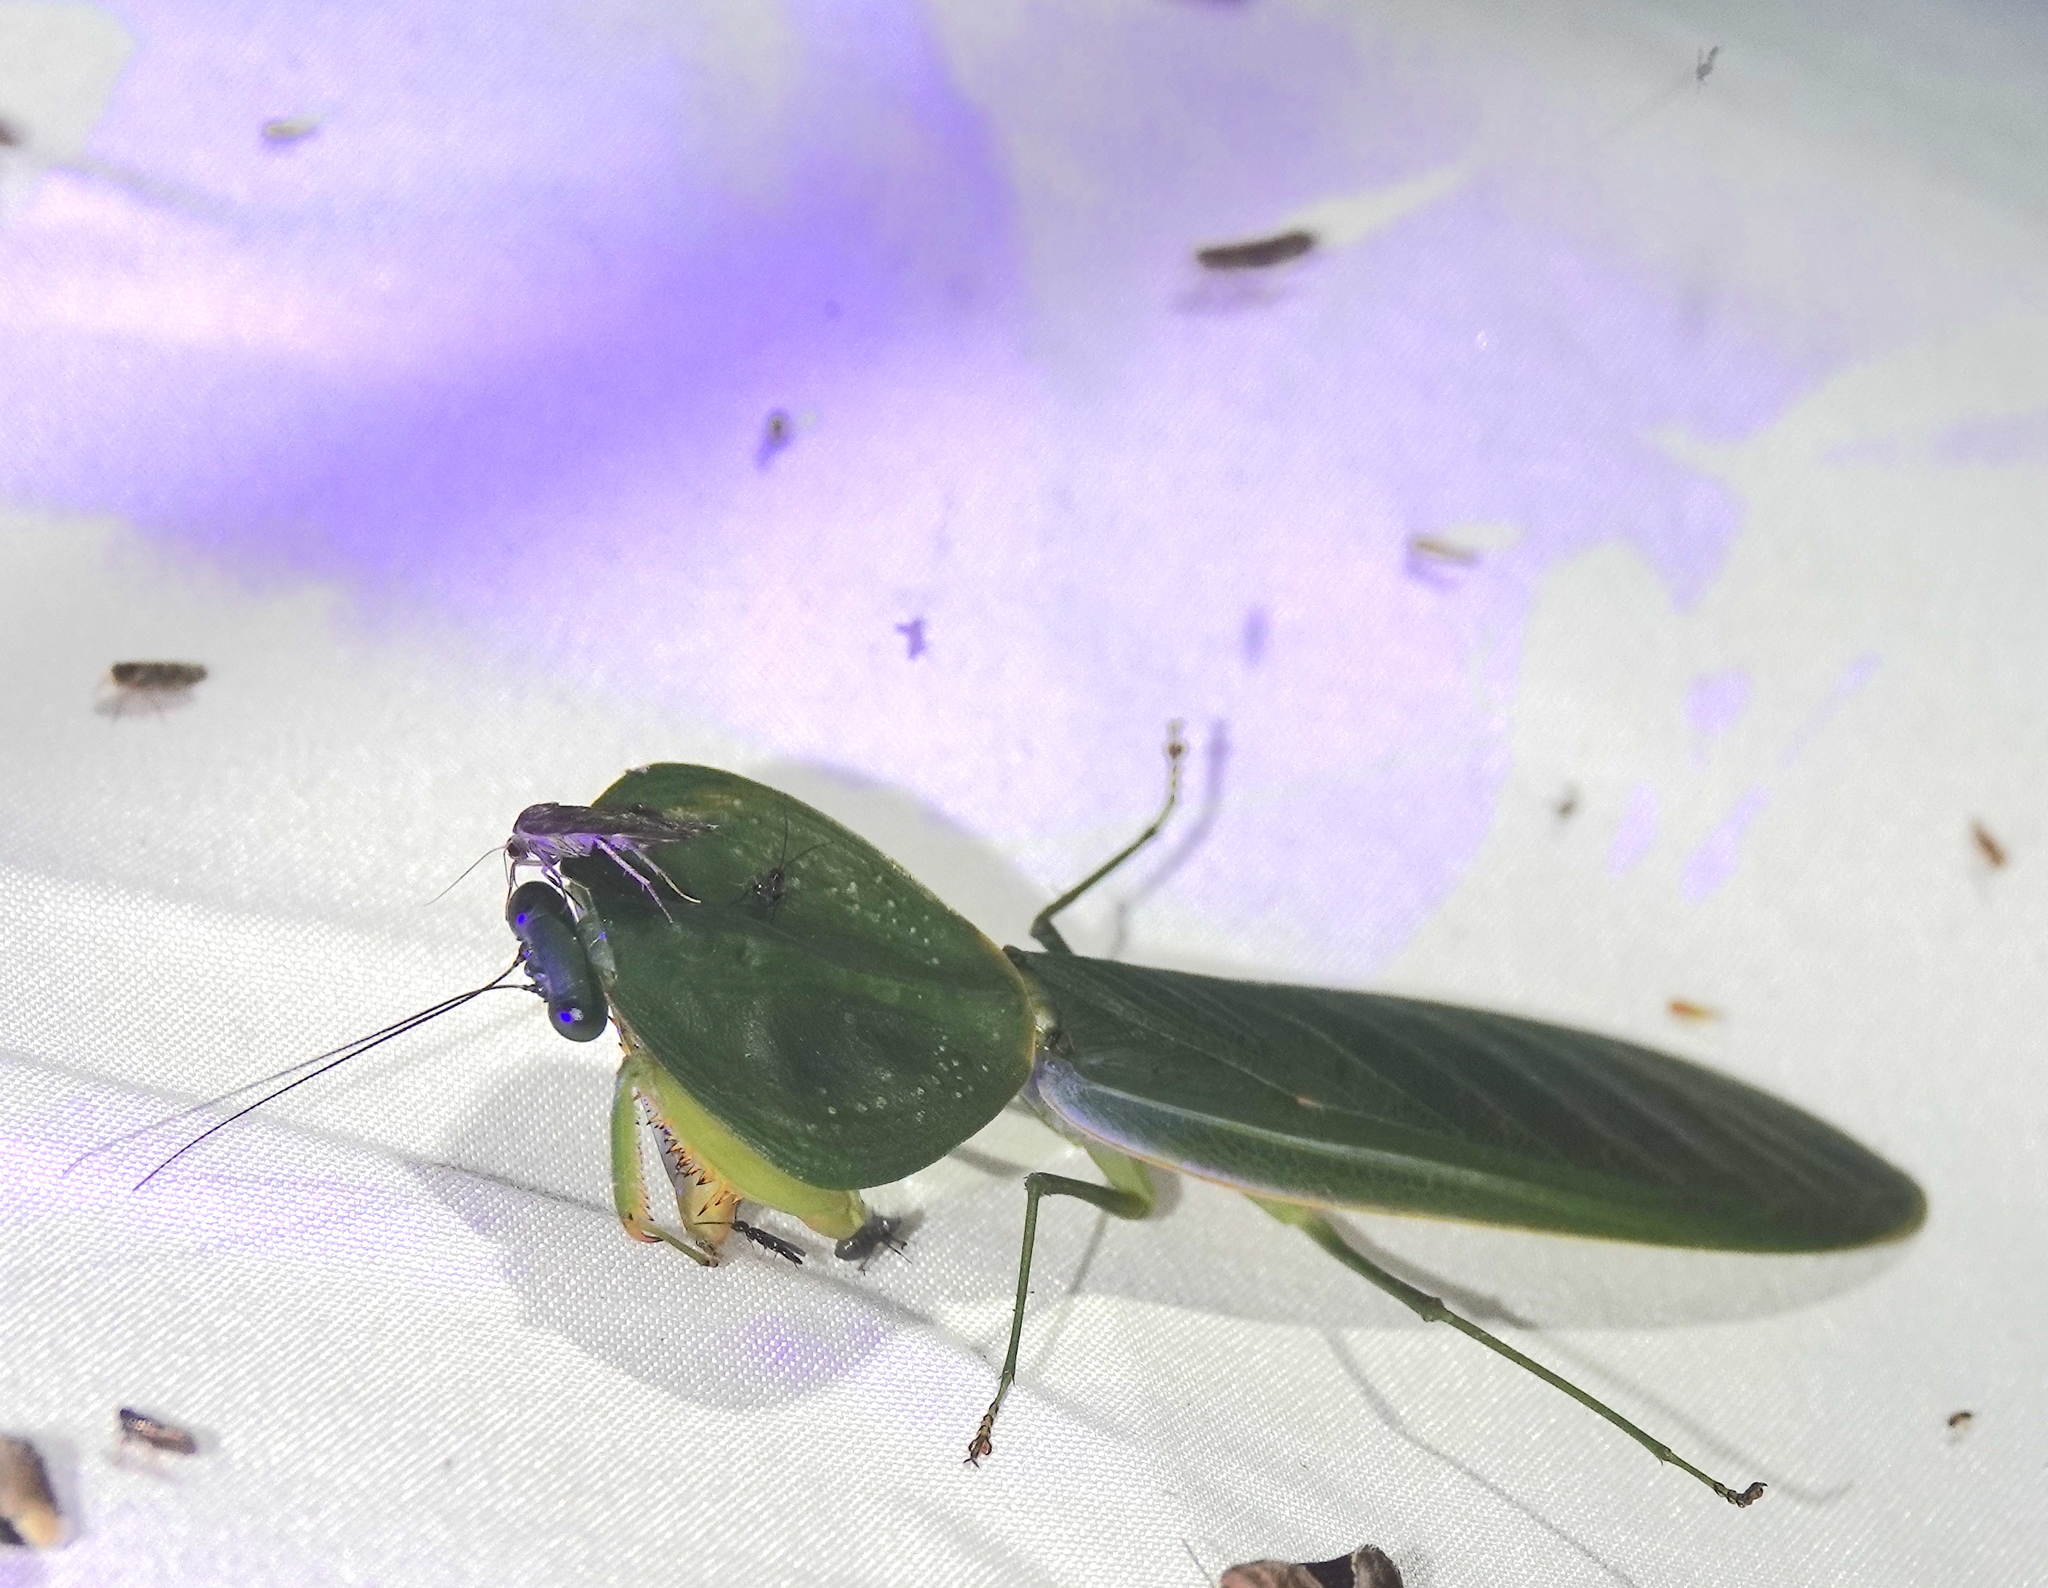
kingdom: Animalia
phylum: Arthropoda
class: Insecta
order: Mantodea
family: Mantidae
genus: Choeradodis
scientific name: Choeradodis rhombicollis
